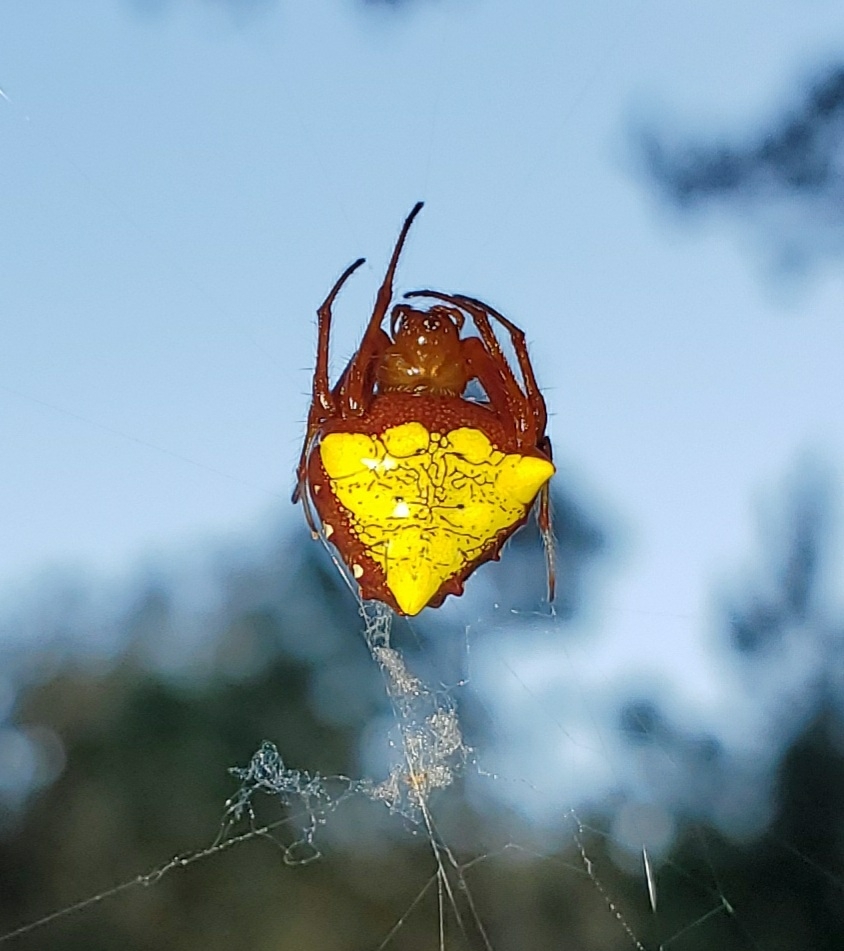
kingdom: Animalia
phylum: Arthropoda
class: Arachnida
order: Araneae
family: Araneidae
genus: Verrucosa
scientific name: Verrucosa arenata
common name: Orb weavers
